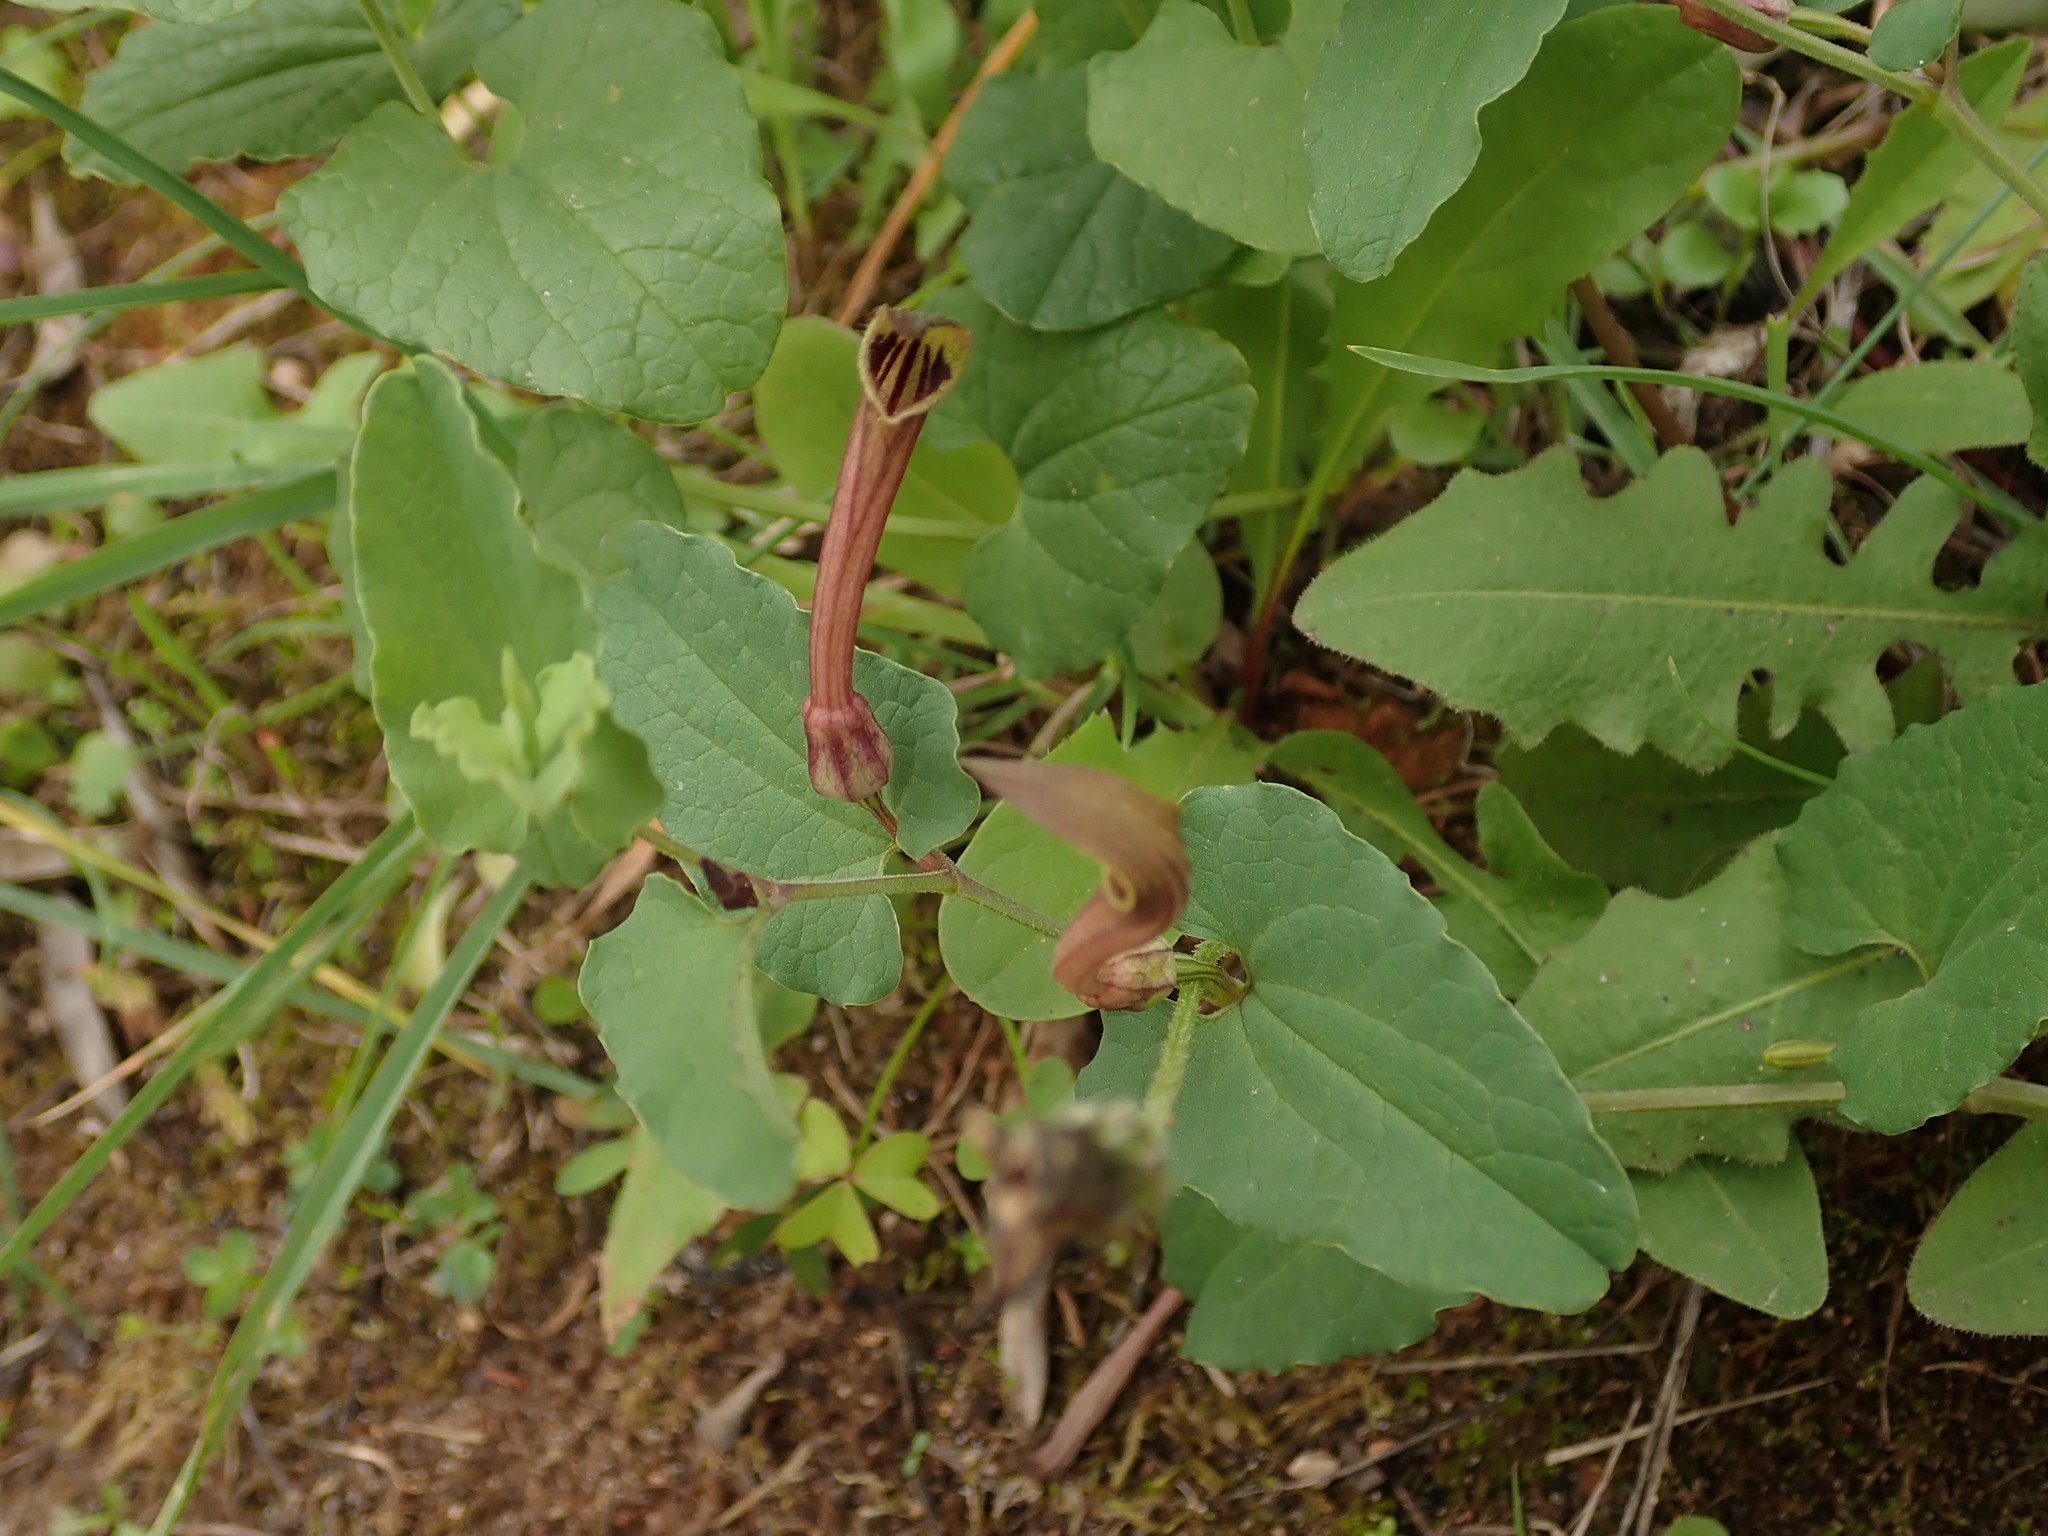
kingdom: Plantae
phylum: Tracheophyta
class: Magnoliopsida
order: Piperales
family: Aristolochiaceae
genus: Aristolochia
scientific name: Aristolochia paucinervis
